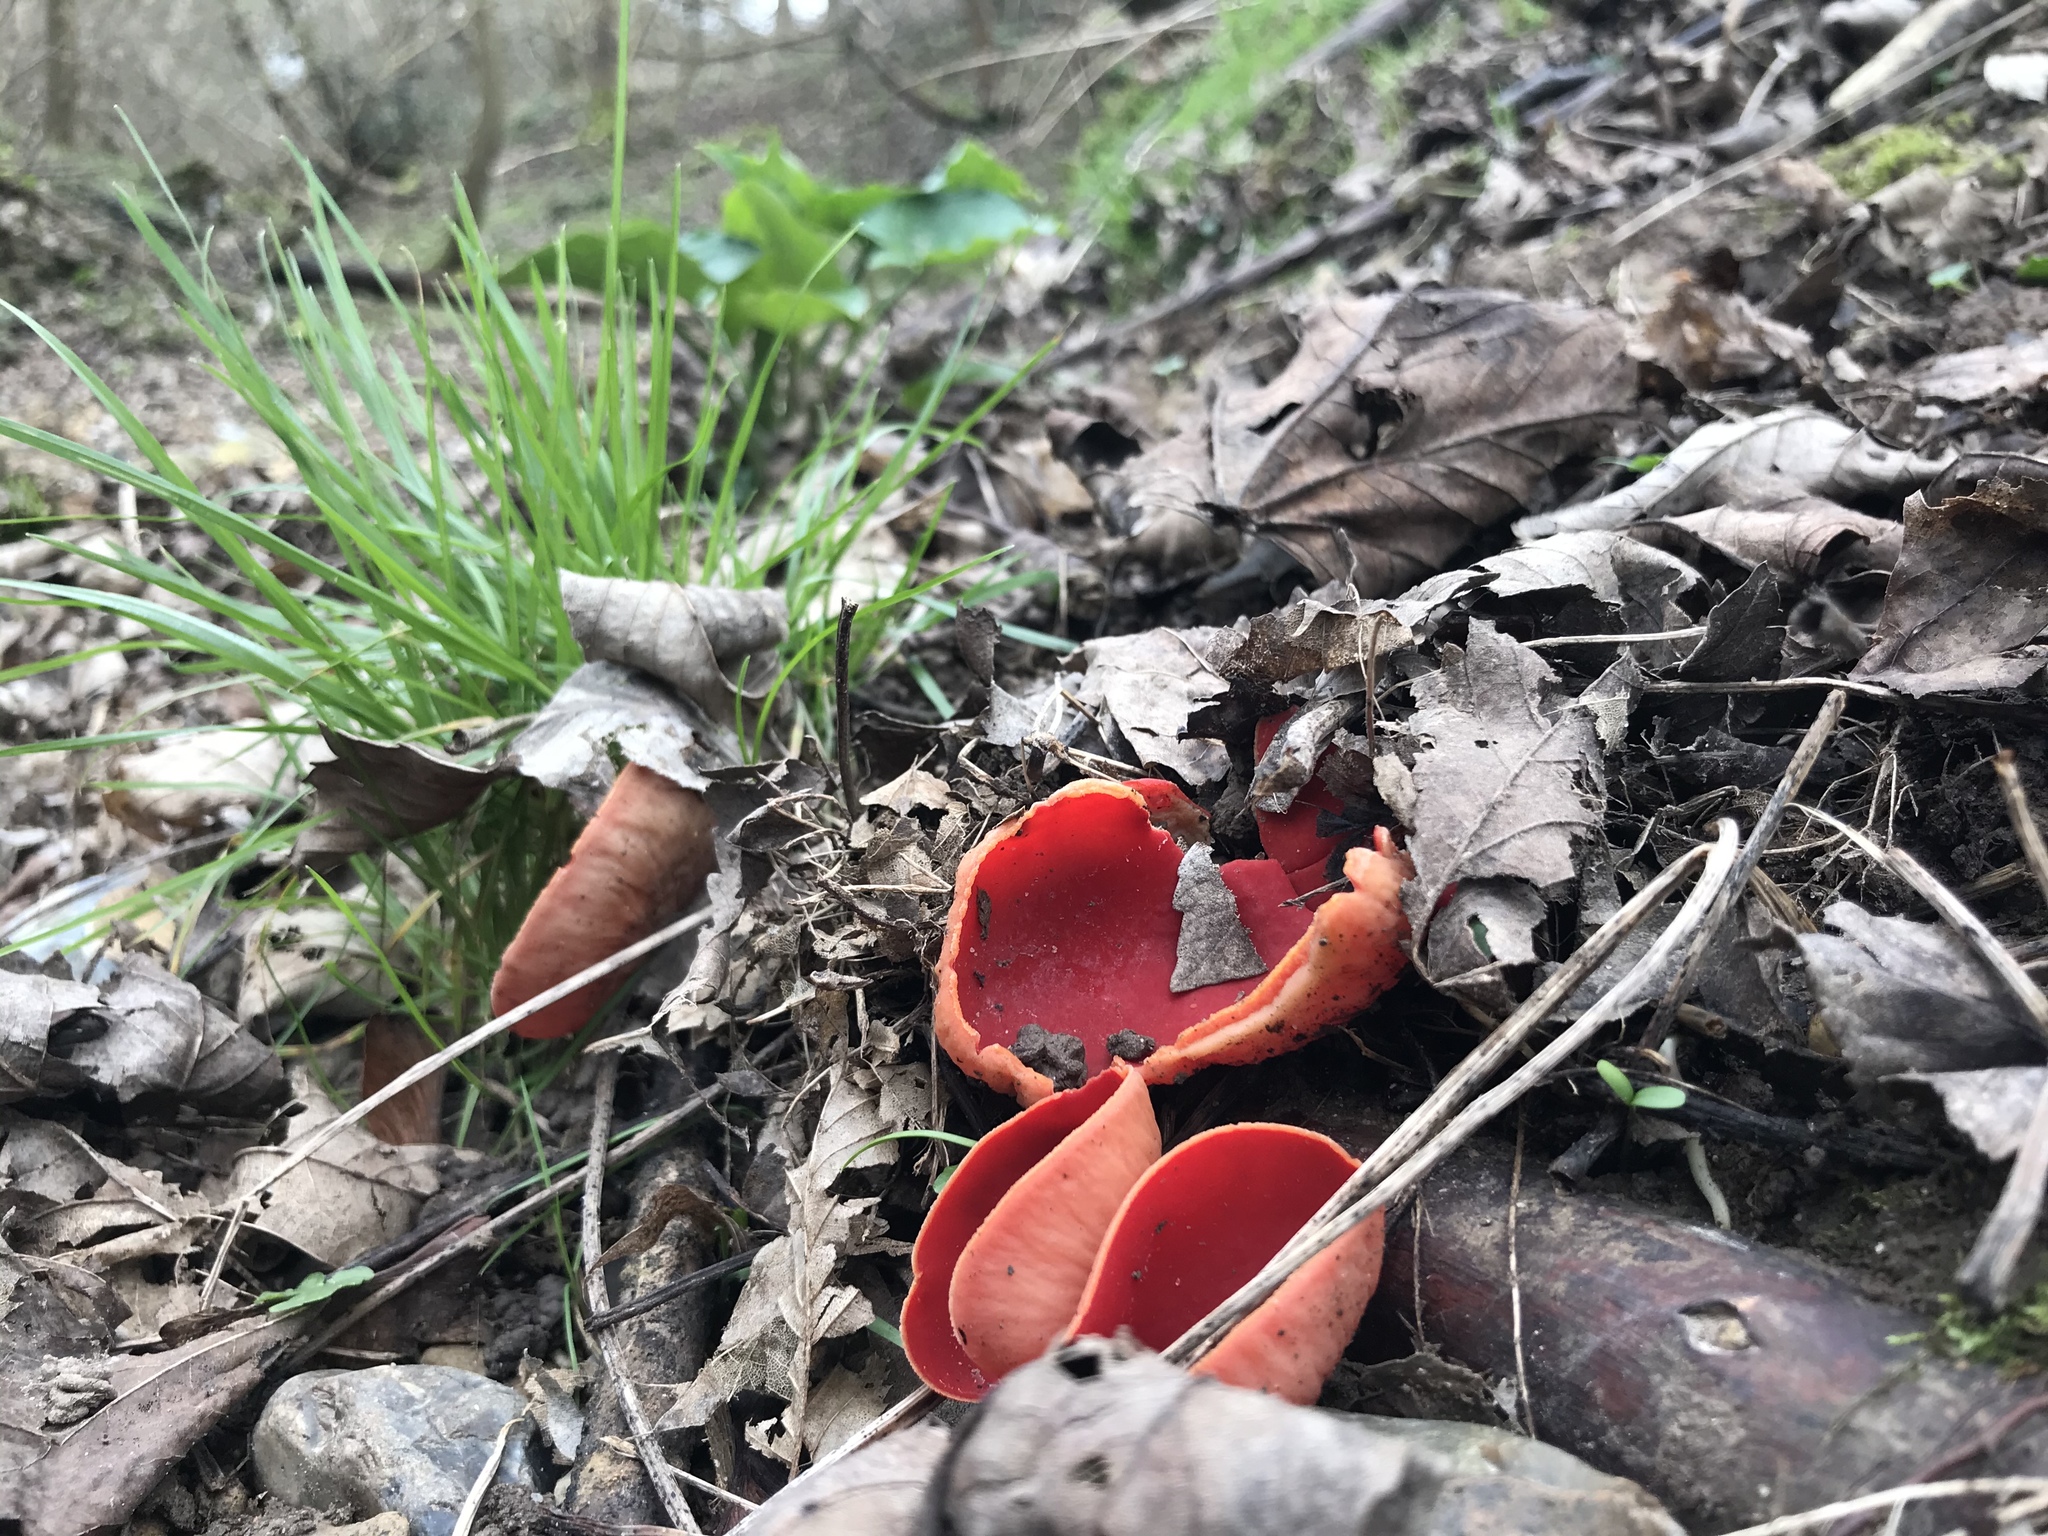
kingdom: Fungi
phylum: Ascomycota
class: Pezizomycetes
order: Pezizales
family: Sarcoscyphaceae
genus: Sarcoscypha
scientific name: Sarcoscypha
